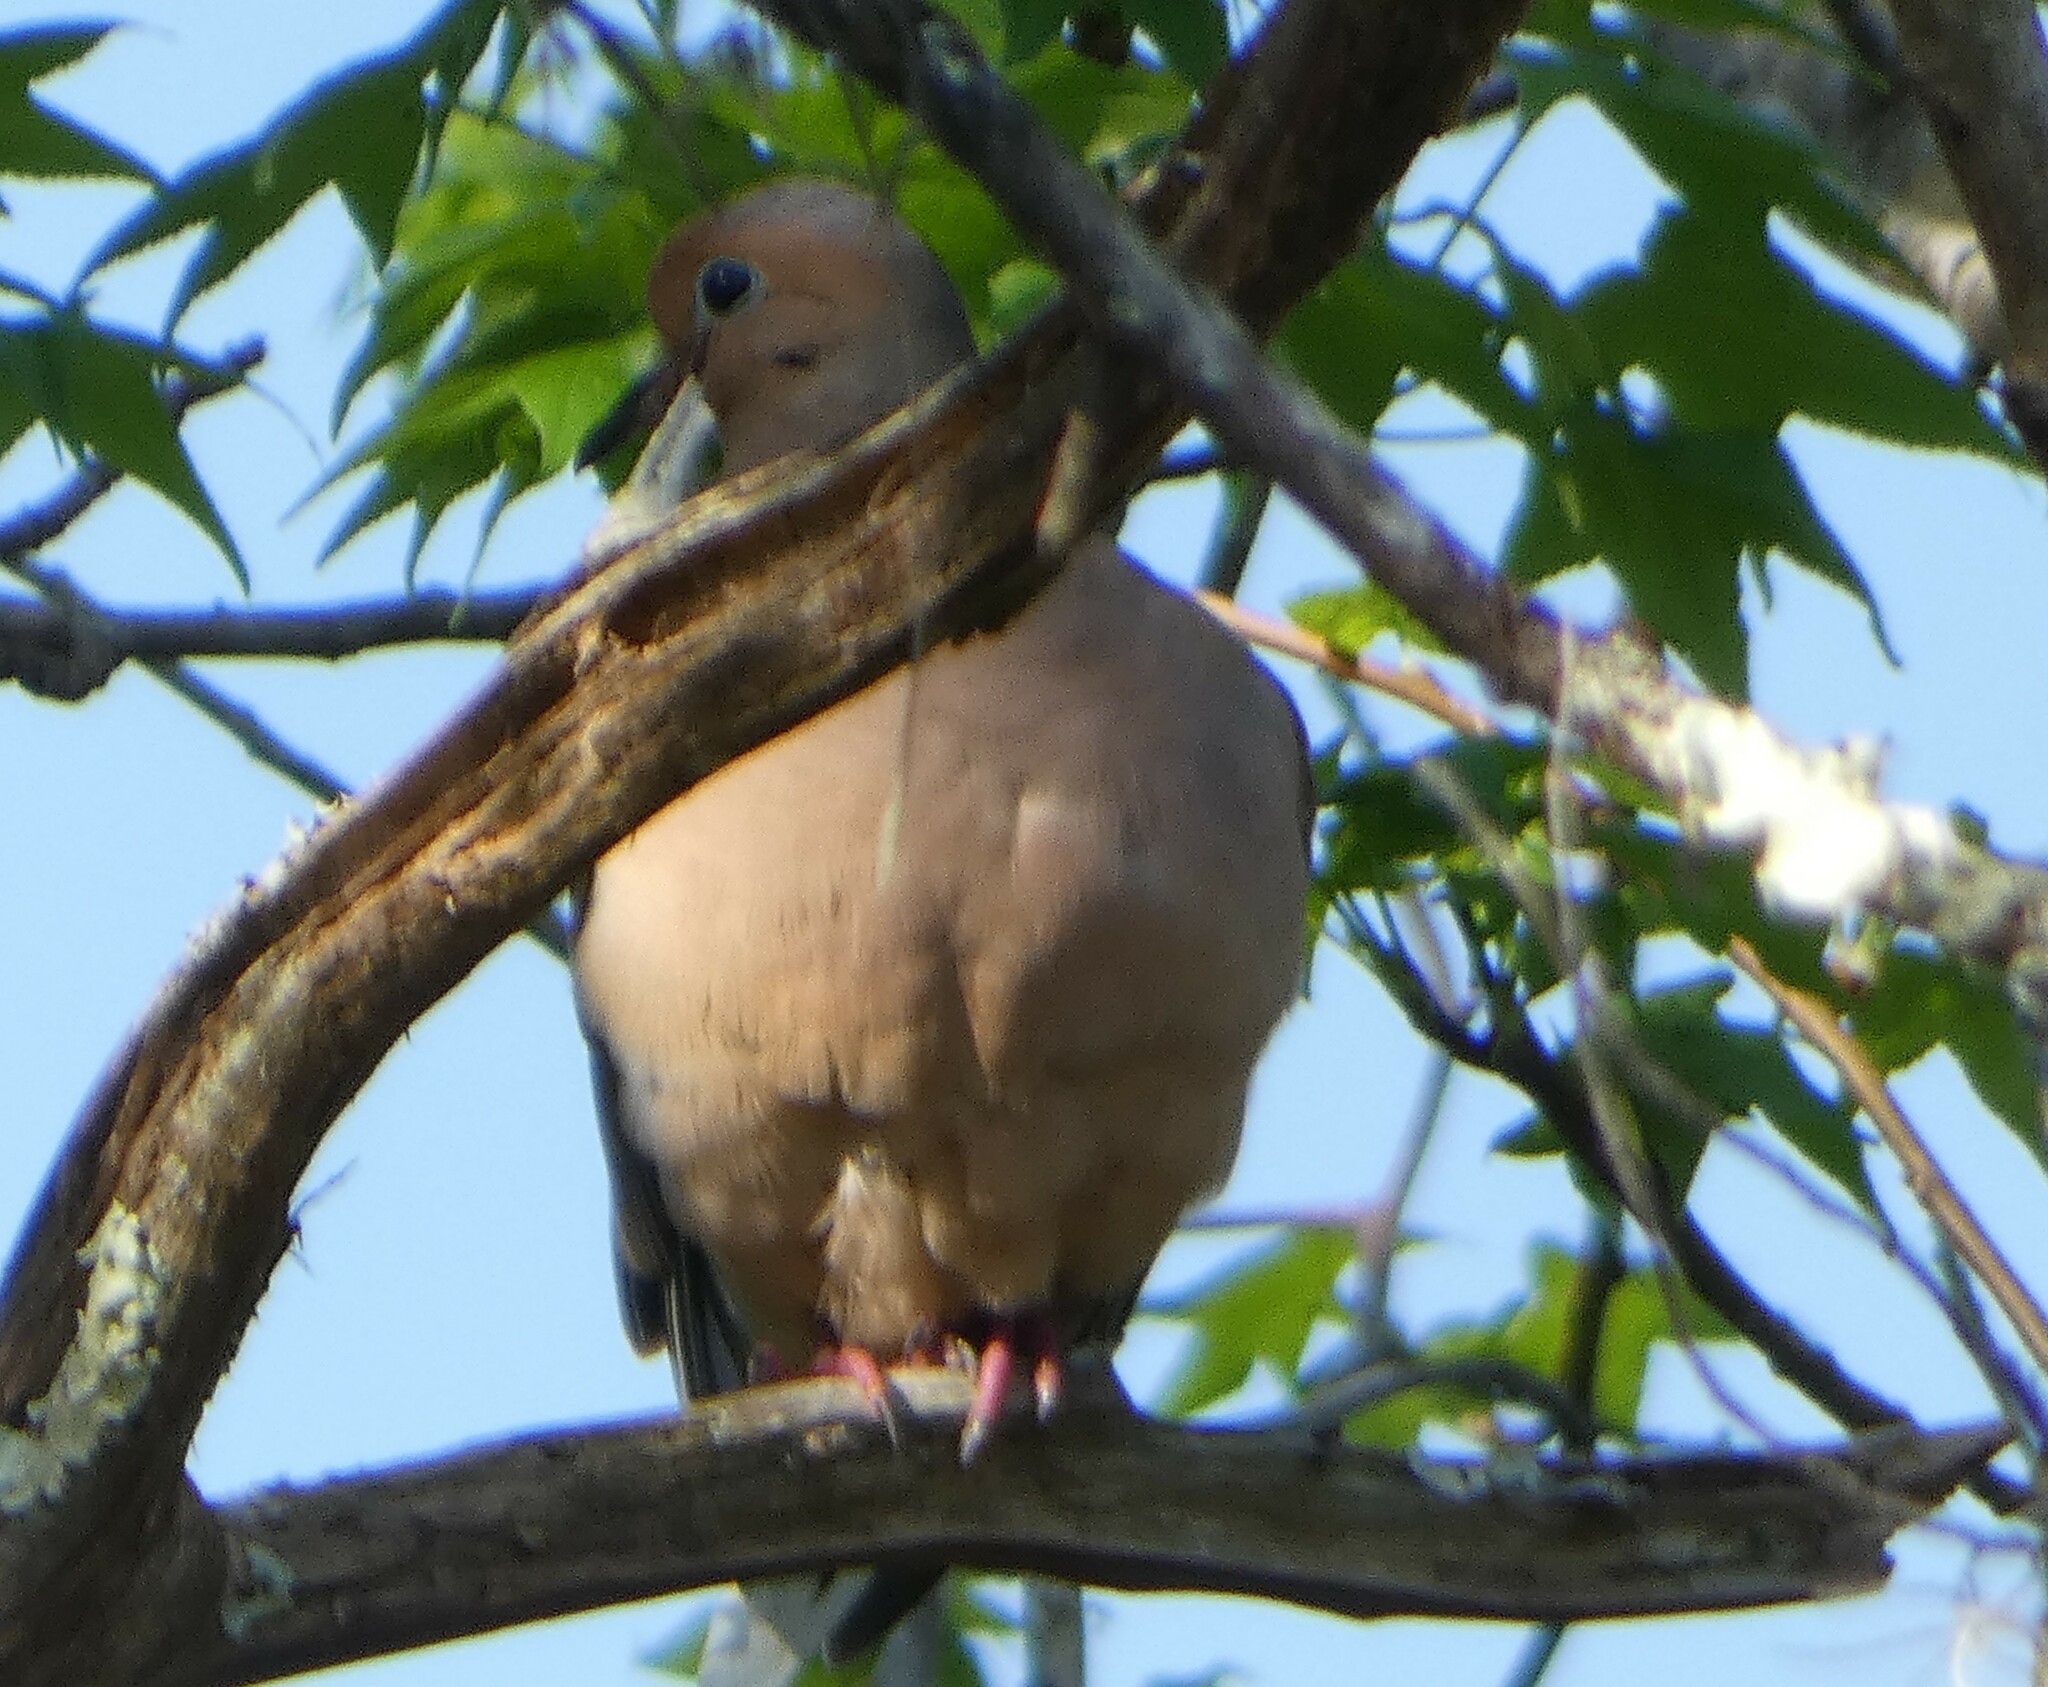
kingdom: Animalia
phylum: Chordata
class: Aves
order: Columbiformes
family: Columbidae
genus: Zenaida
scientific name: Zenaida macroura
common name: Mourning dove
